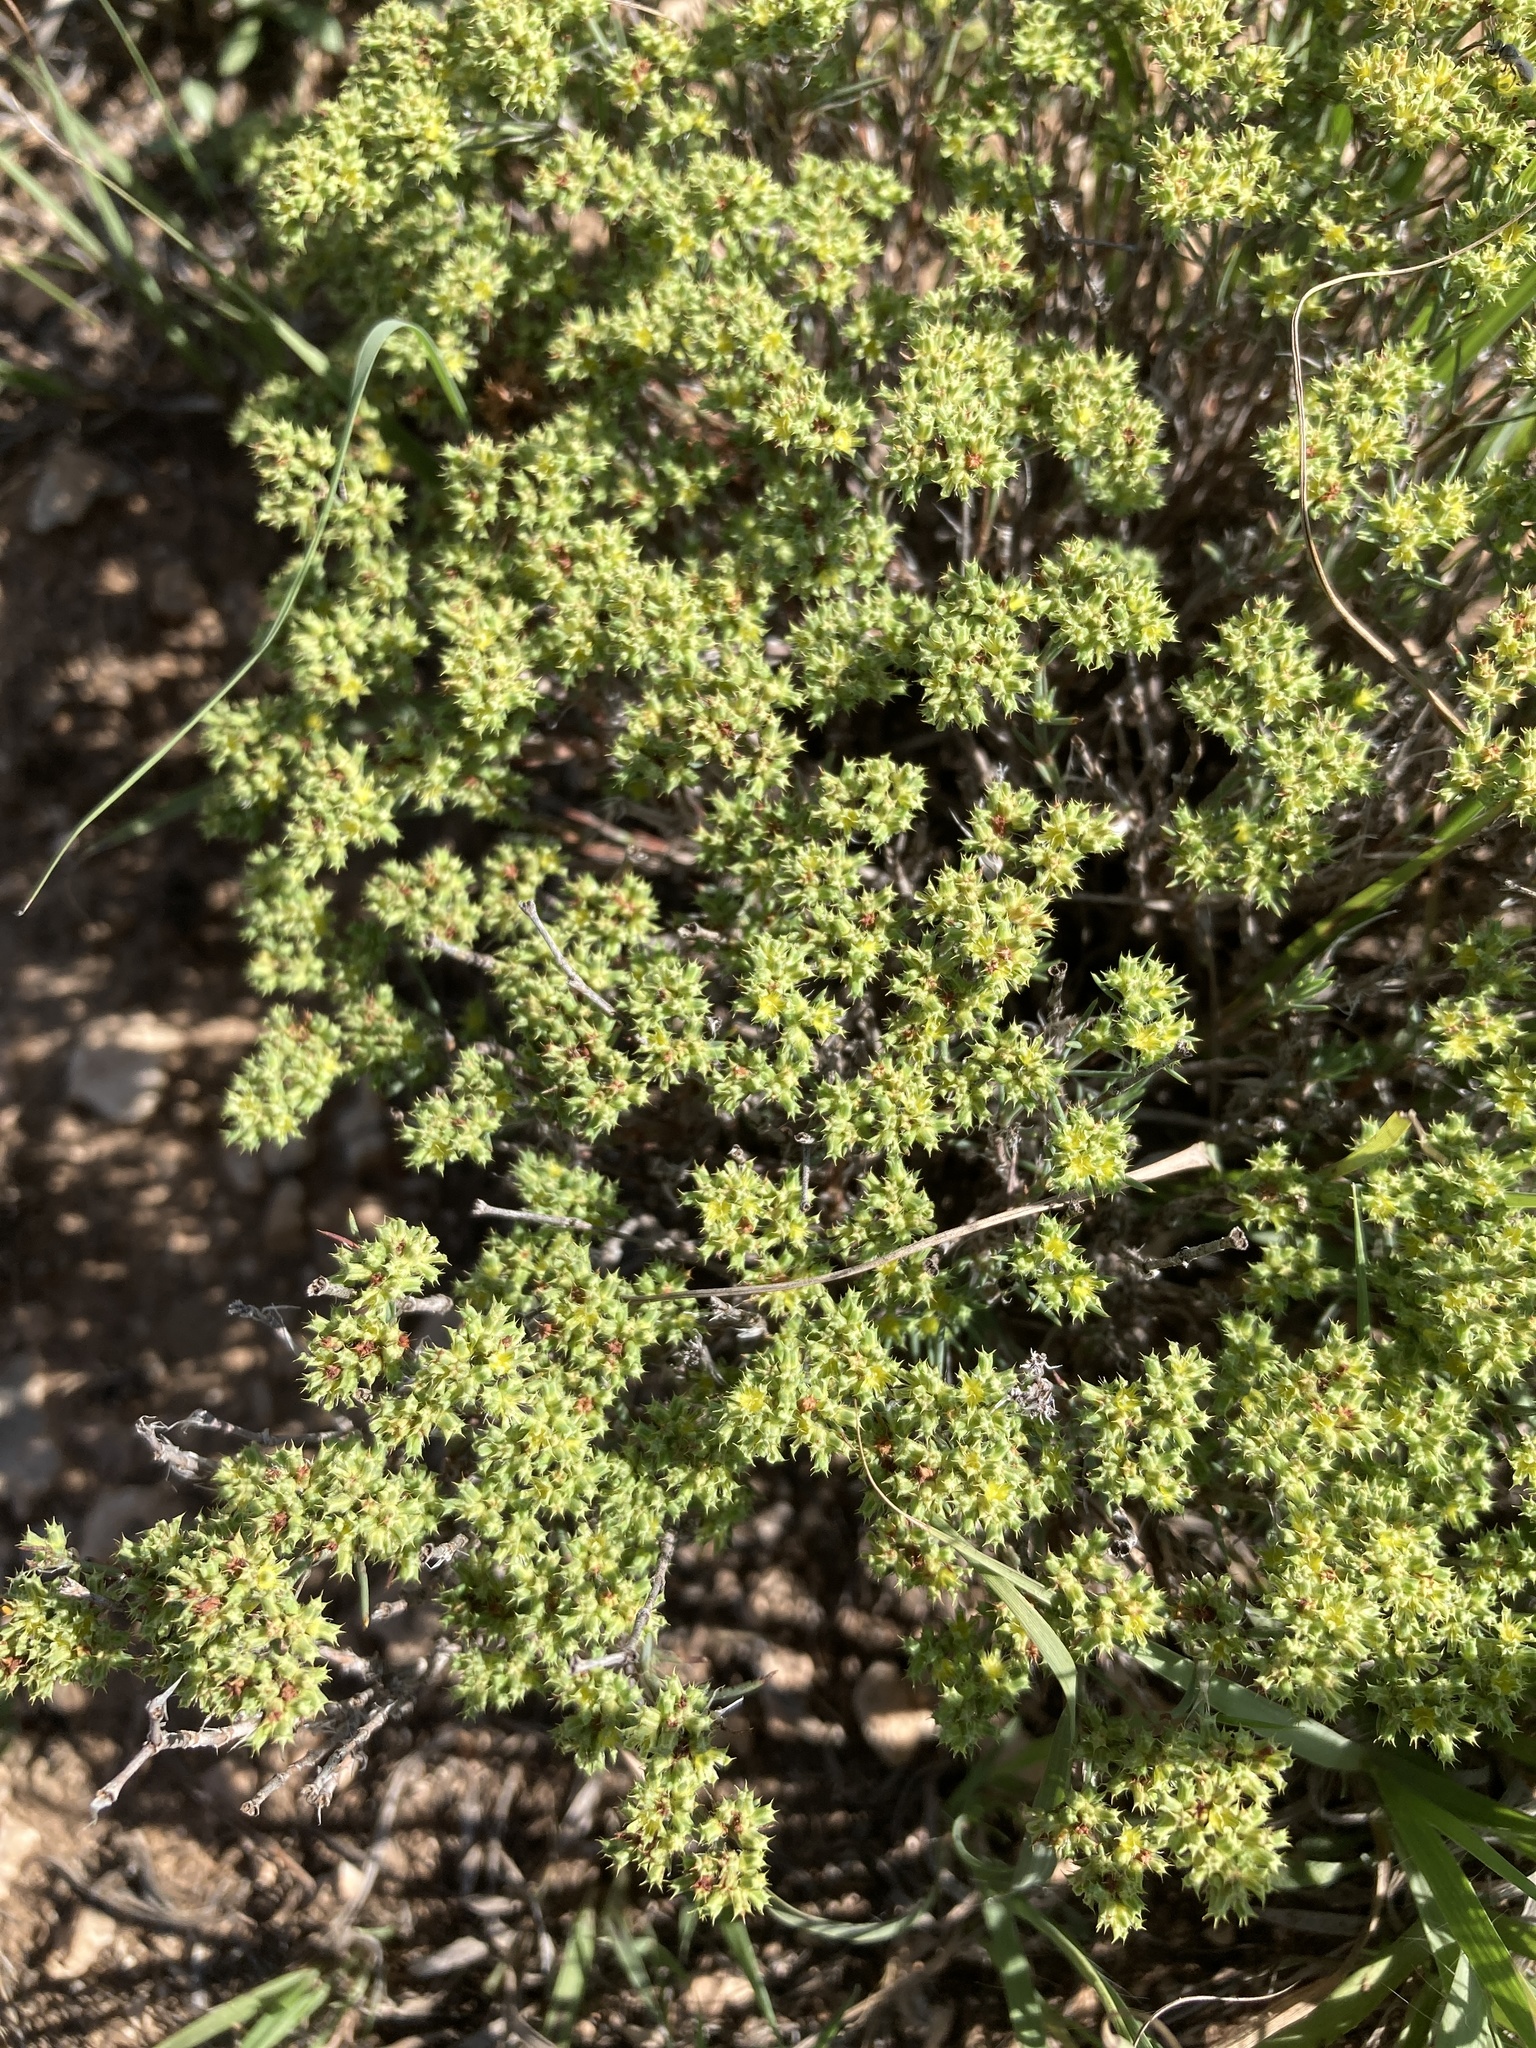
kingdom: Plantae
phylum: Tracheophyta
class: Magnoliopsida
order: Caryophyllales
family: Caryophyllaceae
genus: Paronychia
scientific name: Paronychia jamesii
